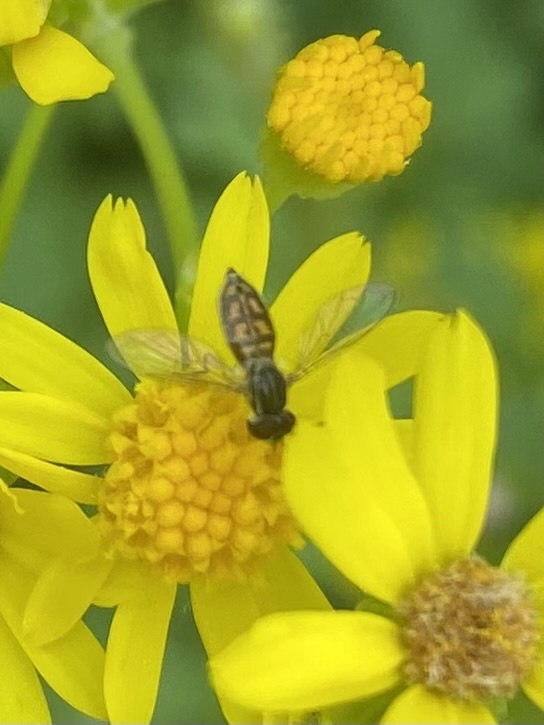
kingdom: Animalia
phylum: Arthropoda
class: Insecta
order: Diptera
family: Syrphidae
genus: Toxomerus
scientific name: Toxomerus marginatus
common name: Syrphid fly
